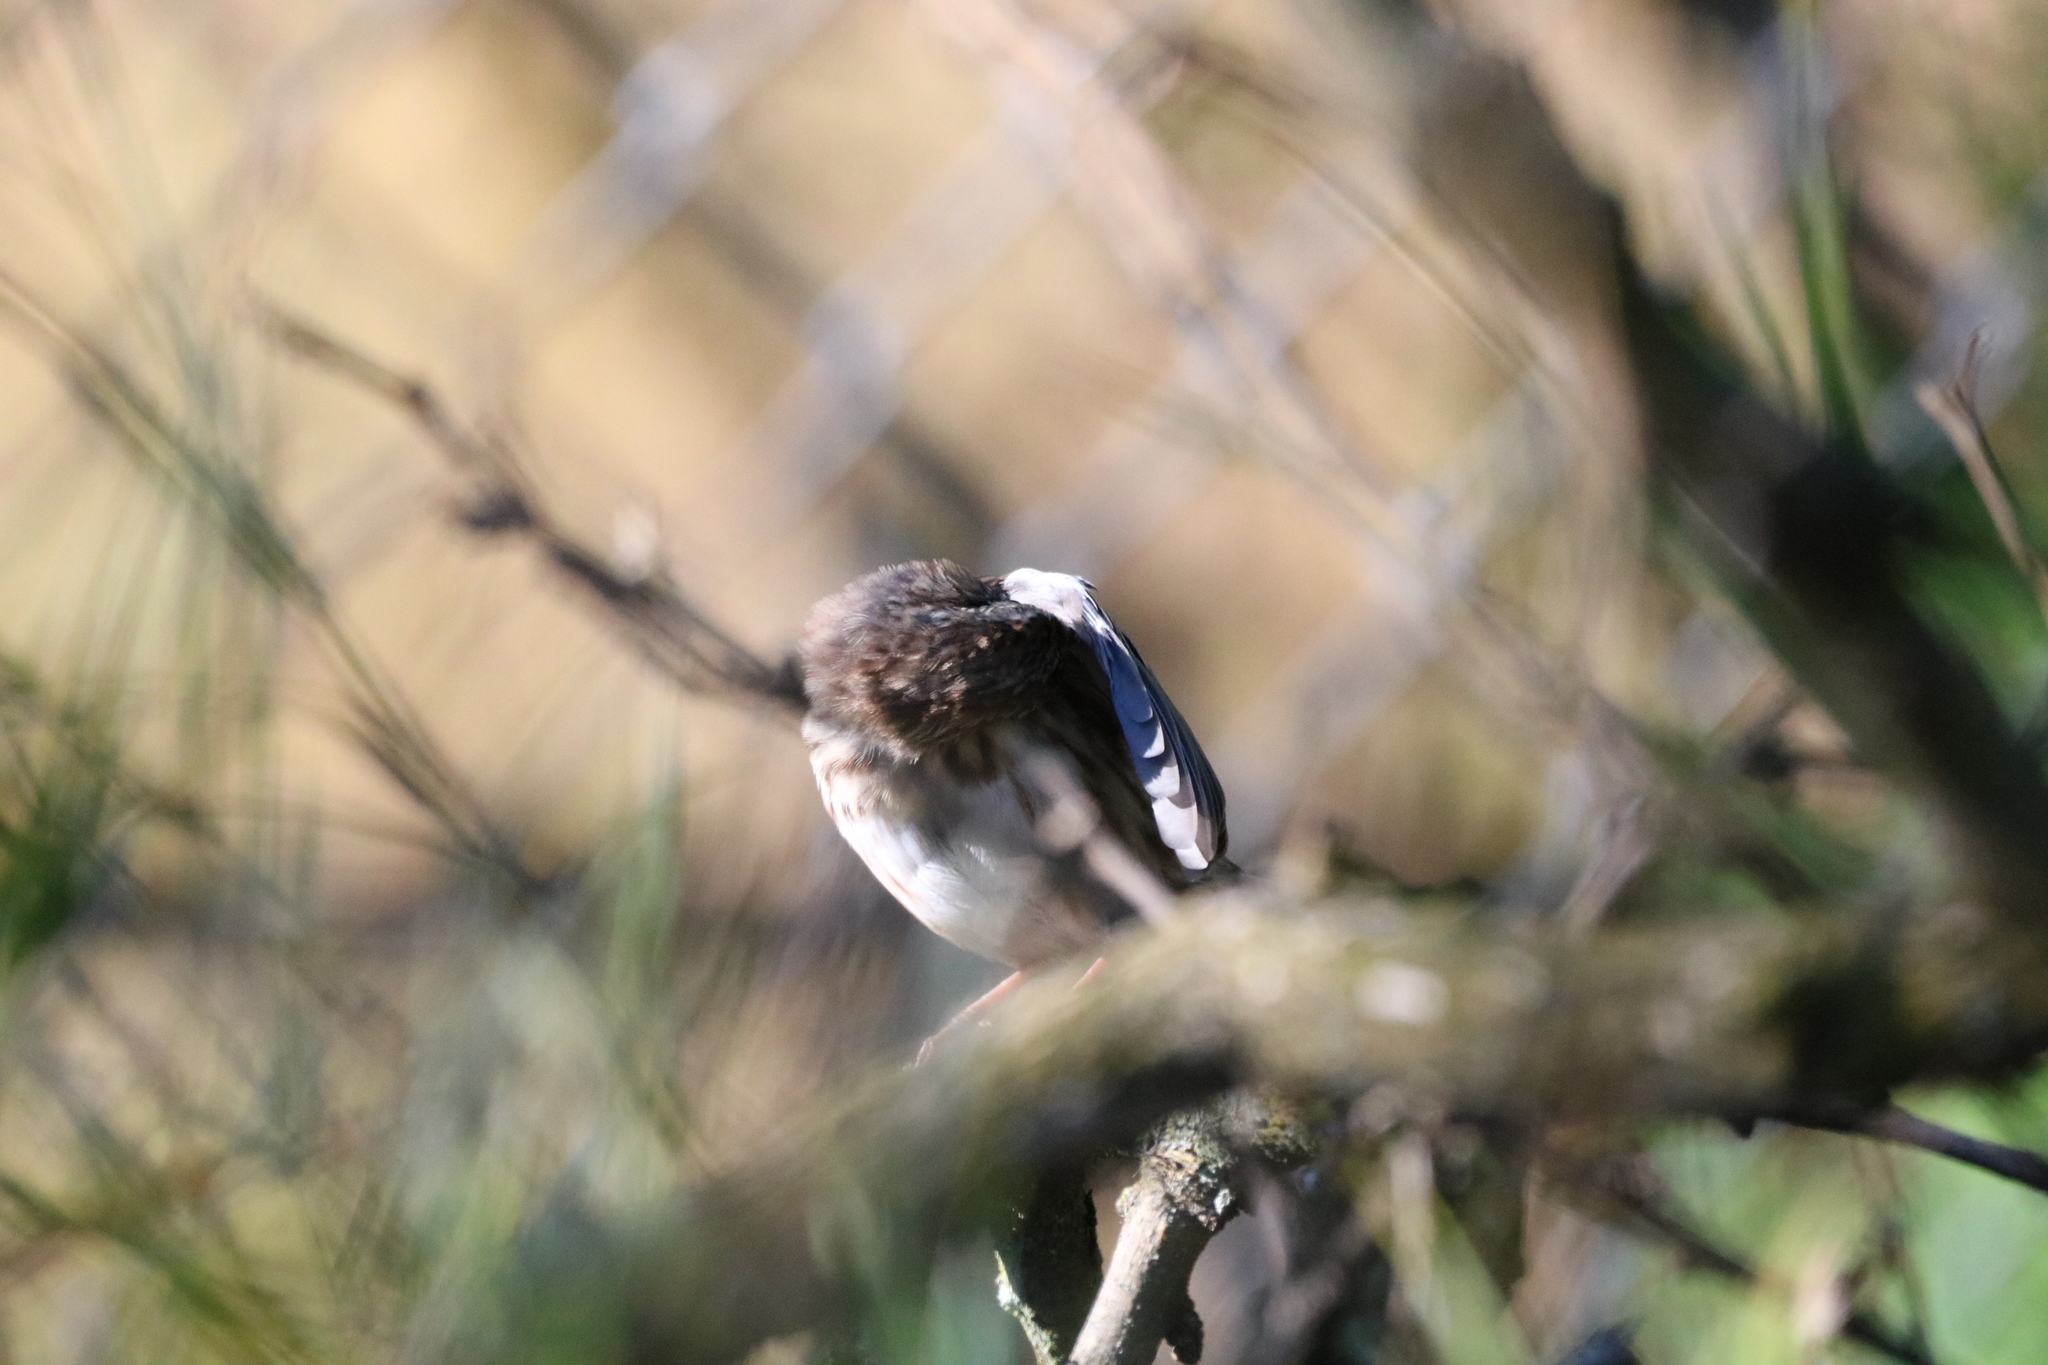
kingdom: Animalia
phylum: Chordata
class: Aves
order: Passeriformes
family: Passerellidae
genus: Melospiza
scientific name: Melospiza lincolnii
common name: Lincoln's sparrow
